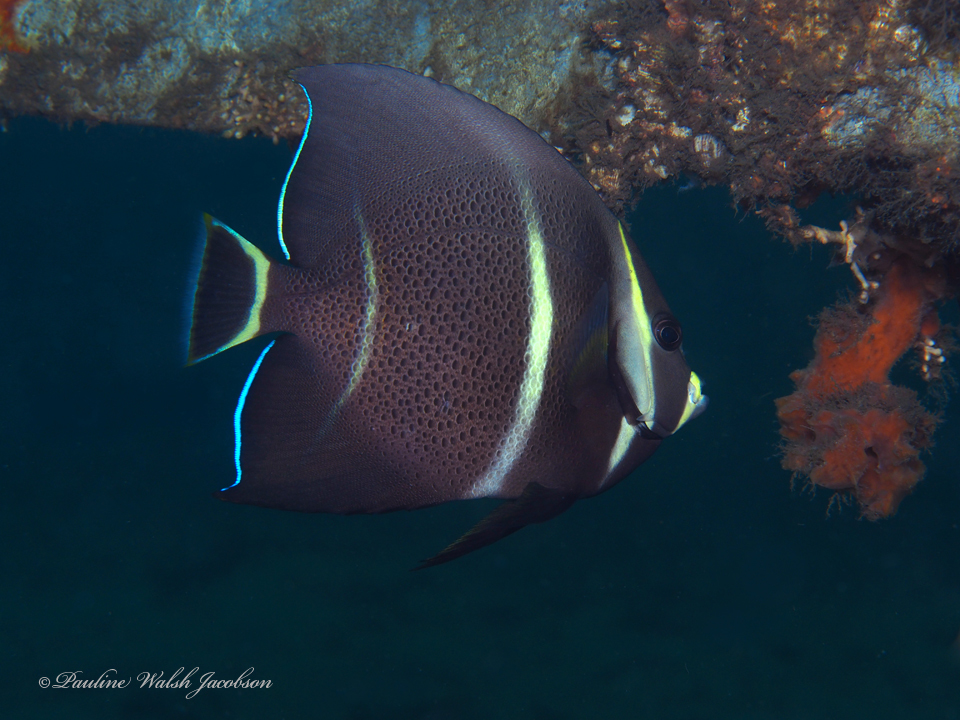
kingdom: Animalia
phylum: Chordata
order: Perciformes
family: Pomacanthidae
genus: Pomacanthus
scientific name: Pomacanthus arcuatus
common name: Gray angelfish
